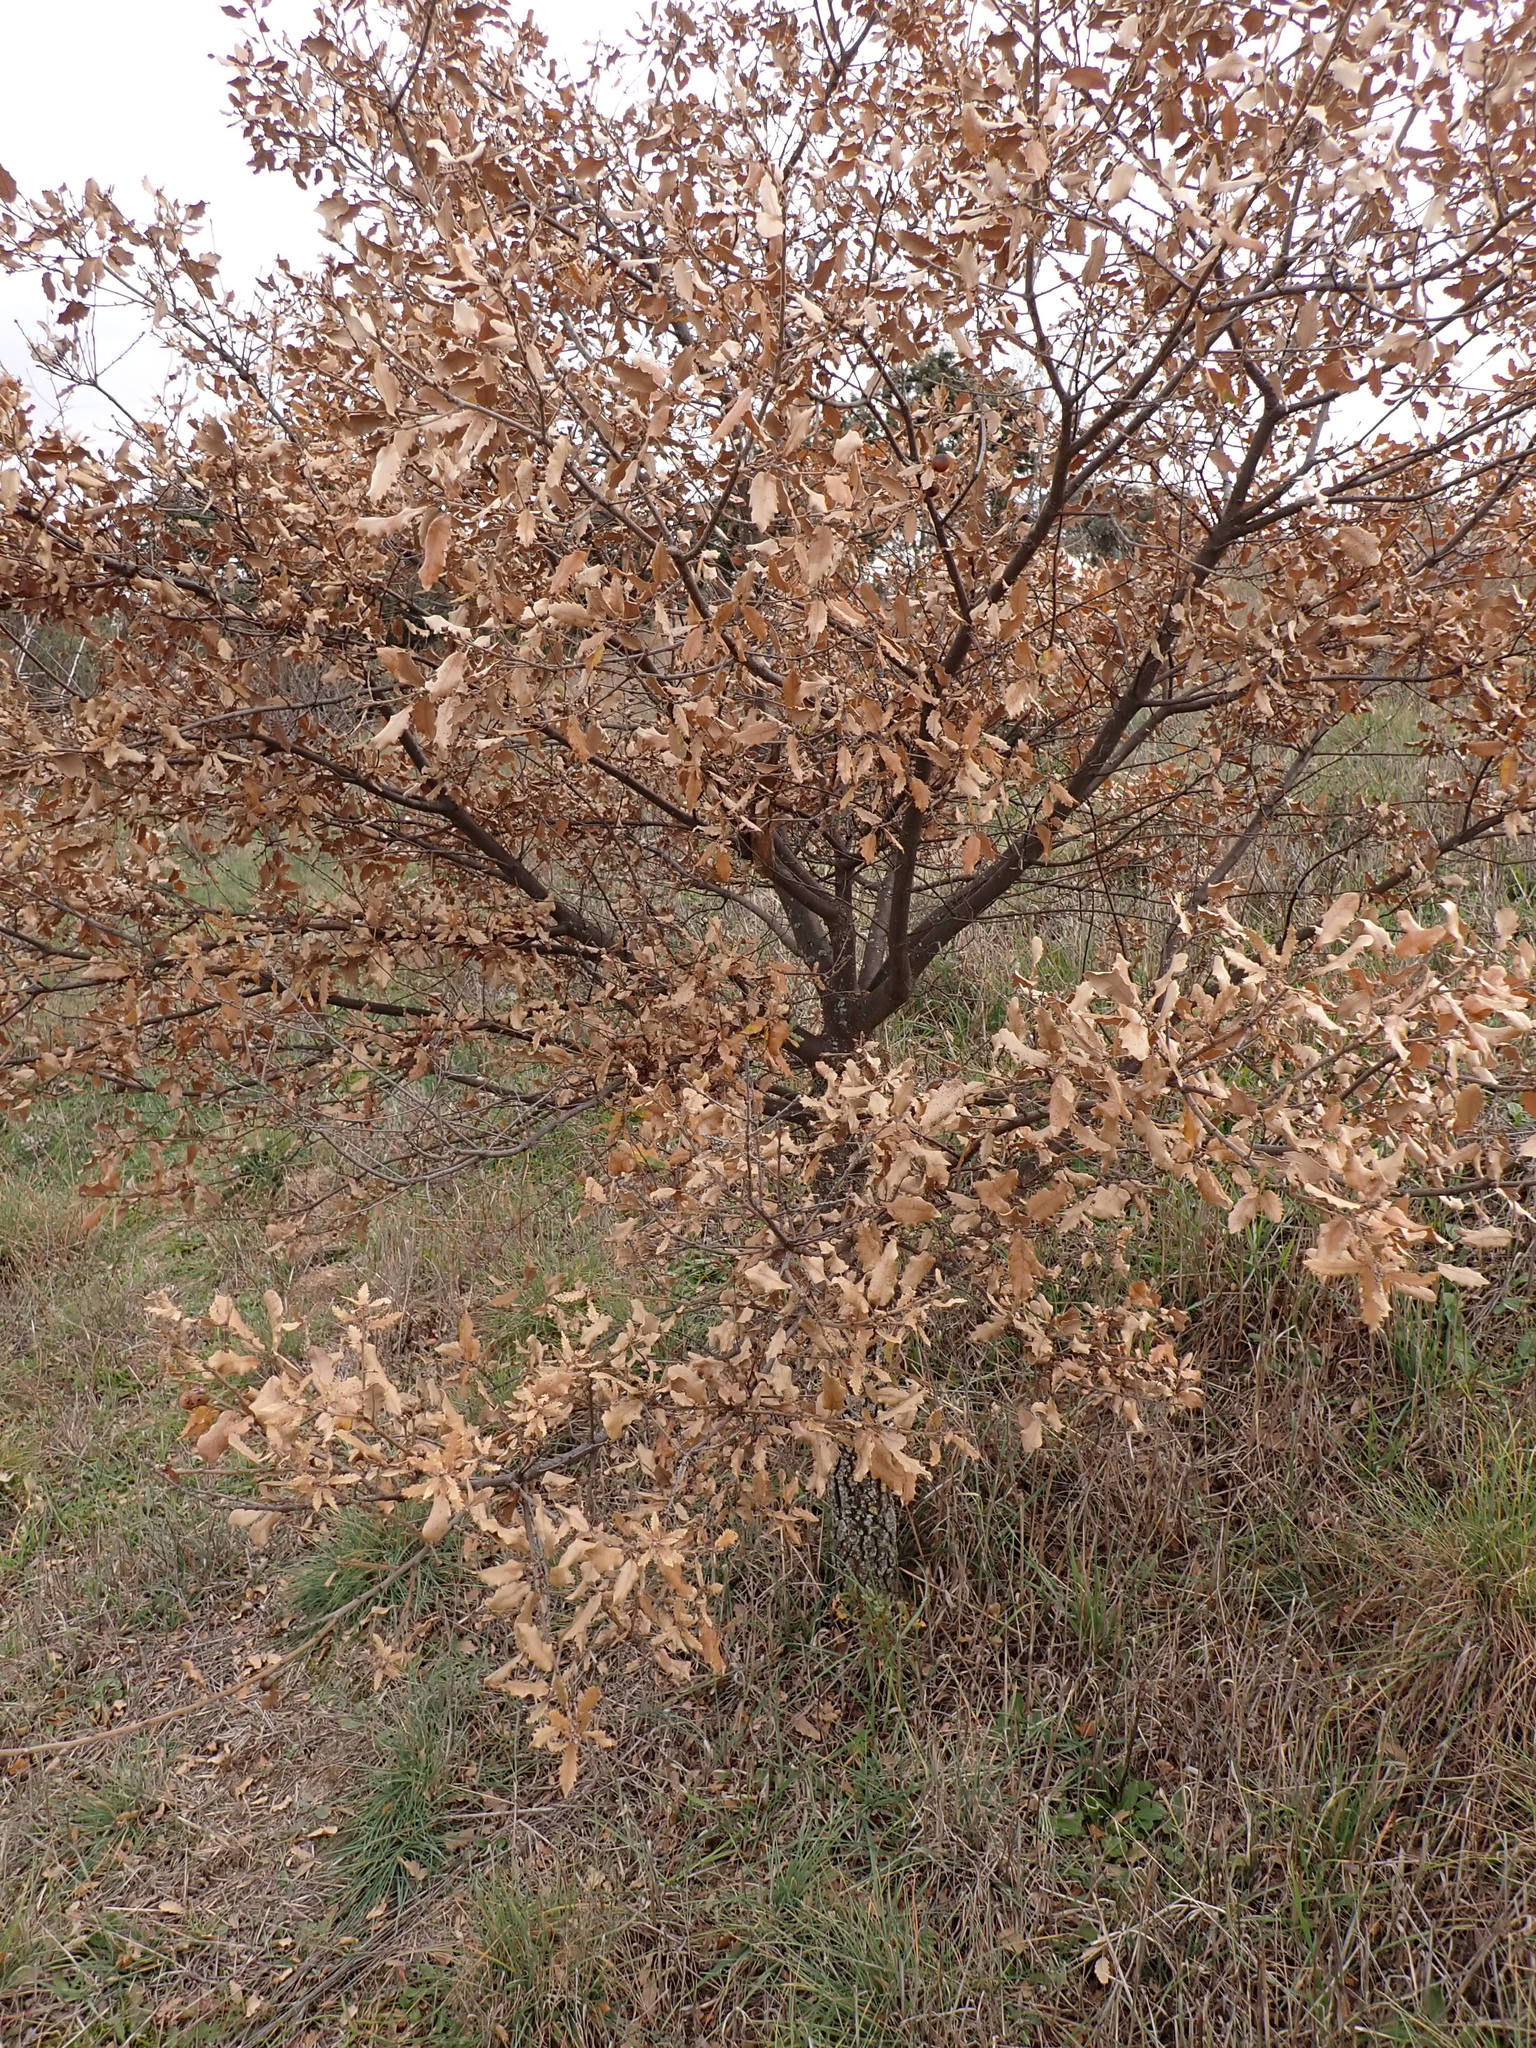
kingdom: Plantae
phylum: Tracheophyta
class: Magnoliopsida
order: Fagales
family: Fagaceae
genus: Quercus
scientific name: Quercus faginea
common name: Gall oak tree
